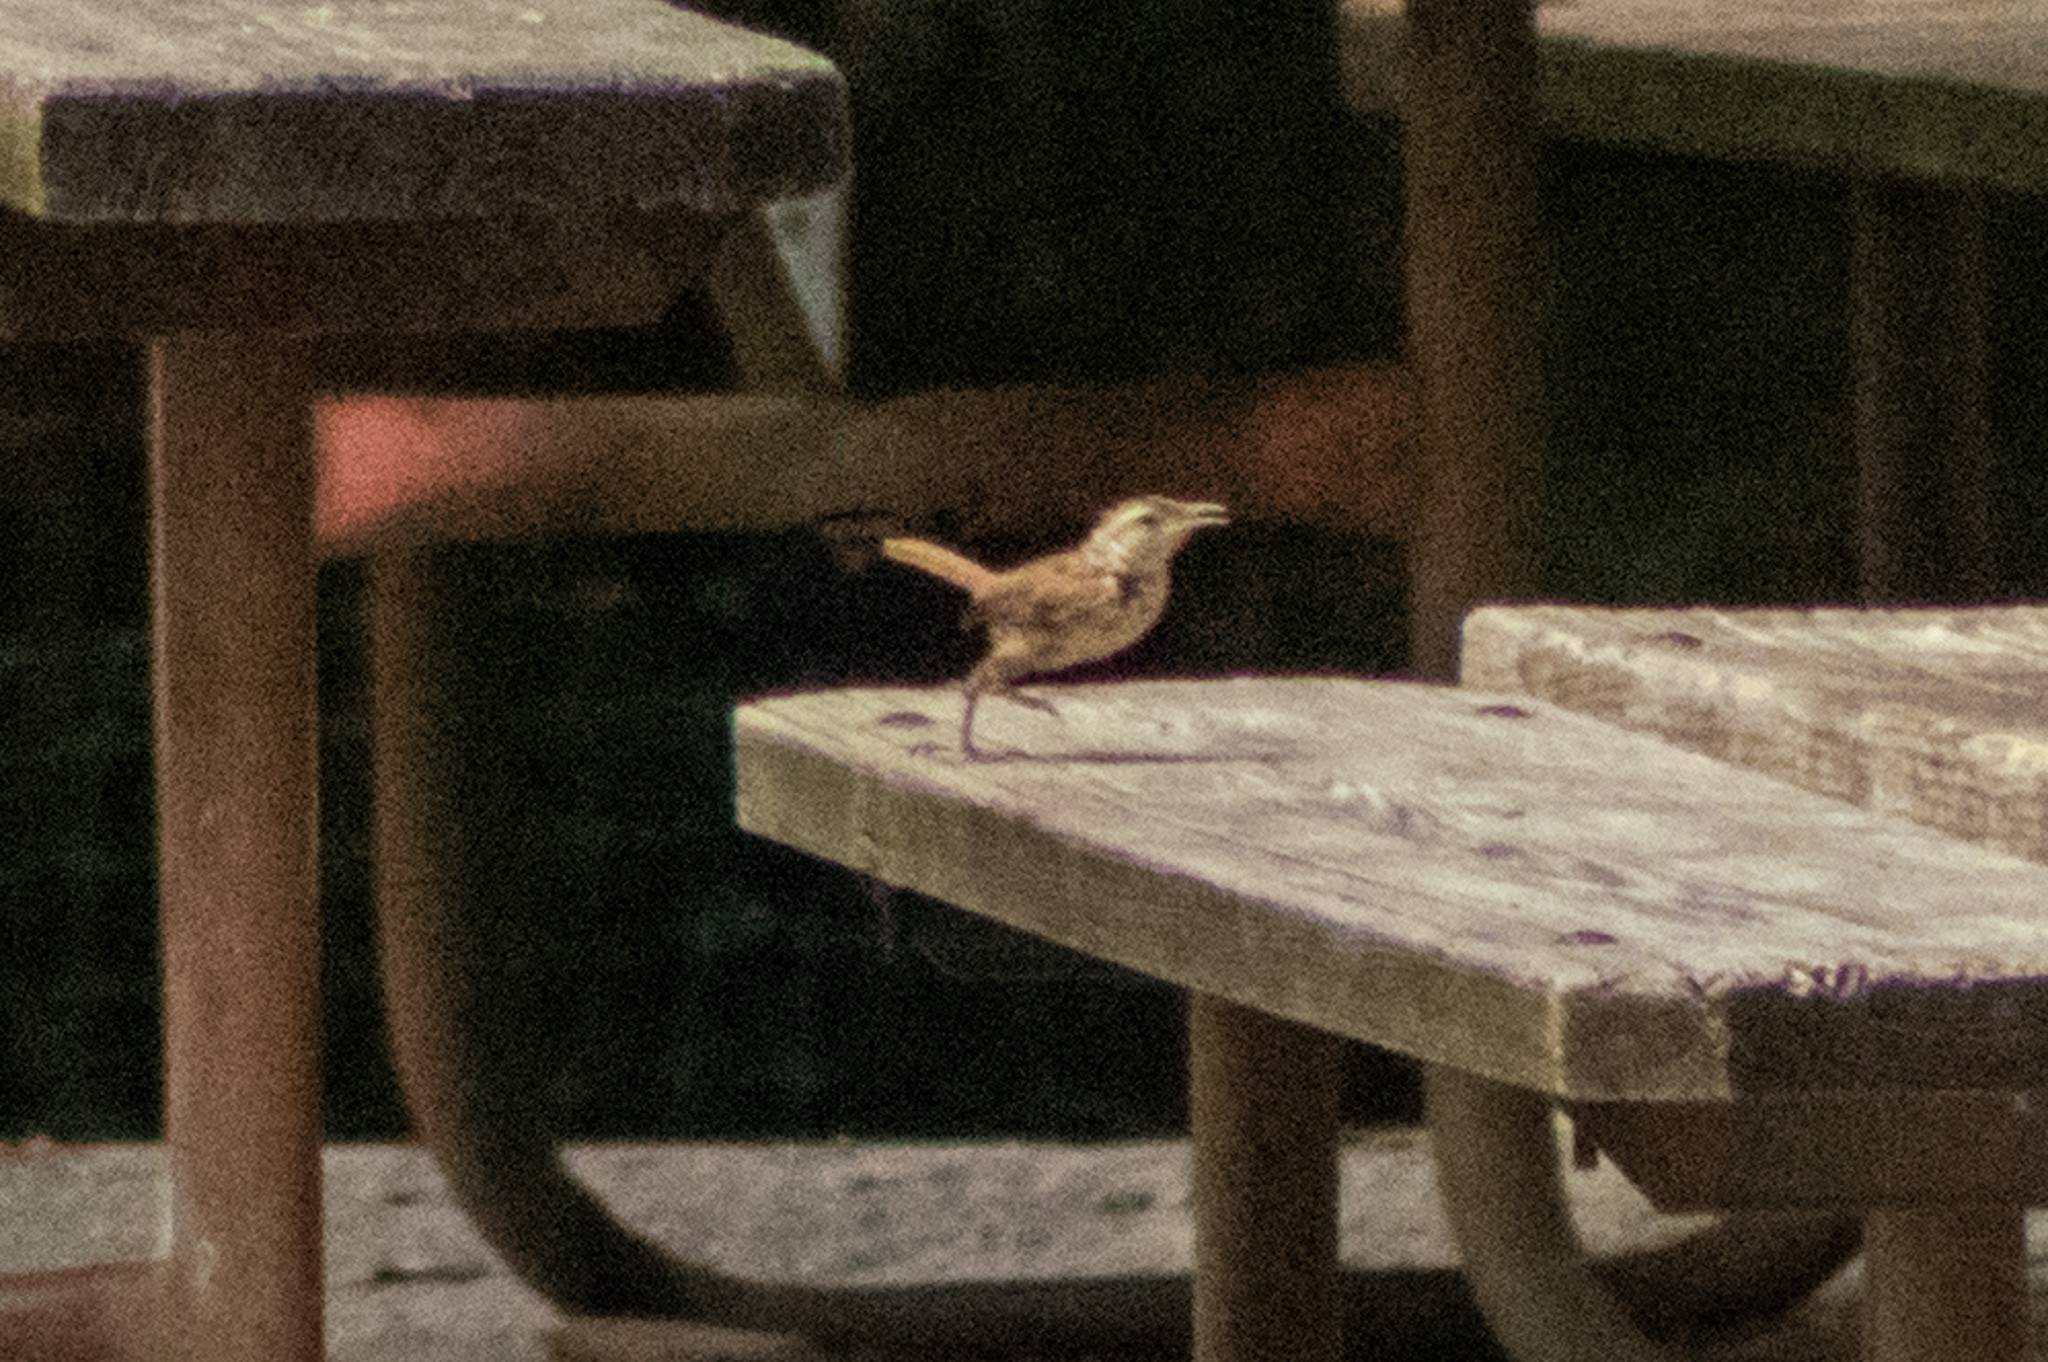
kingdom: Animalia
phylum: Chordata
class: Aves
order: Passeriformes
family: Troglodytidae
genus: Thryothorus
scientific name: Thryothorus ludovicianus
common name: Carolina wren
